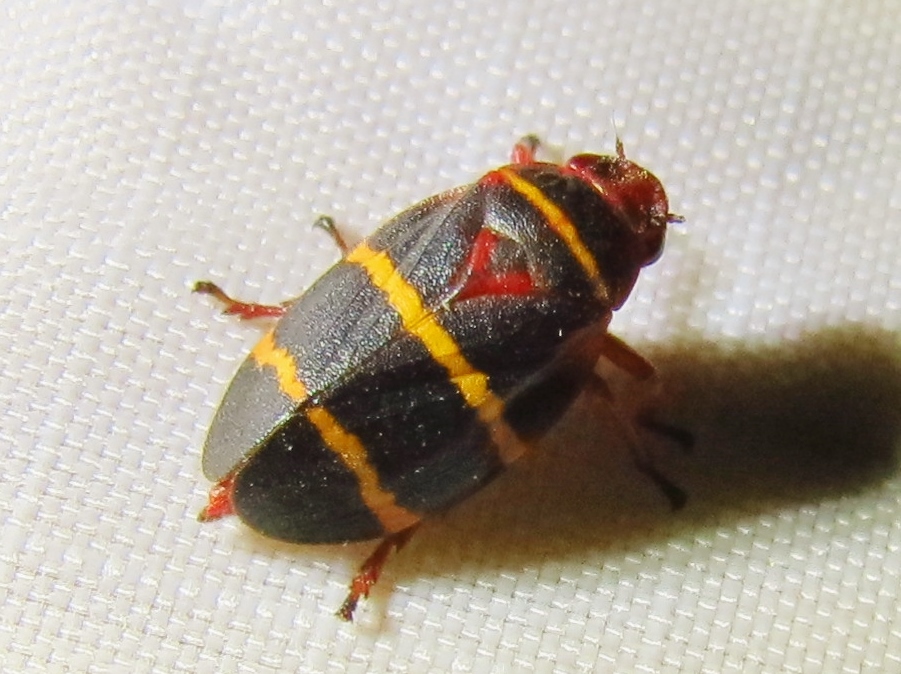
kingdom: Animalia
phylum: Arthropoda
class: Insecta
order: Hemiptera
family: Cercopidae
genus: Prosapia
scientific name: Prosapia bicincta
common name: Twolined spittlebug
